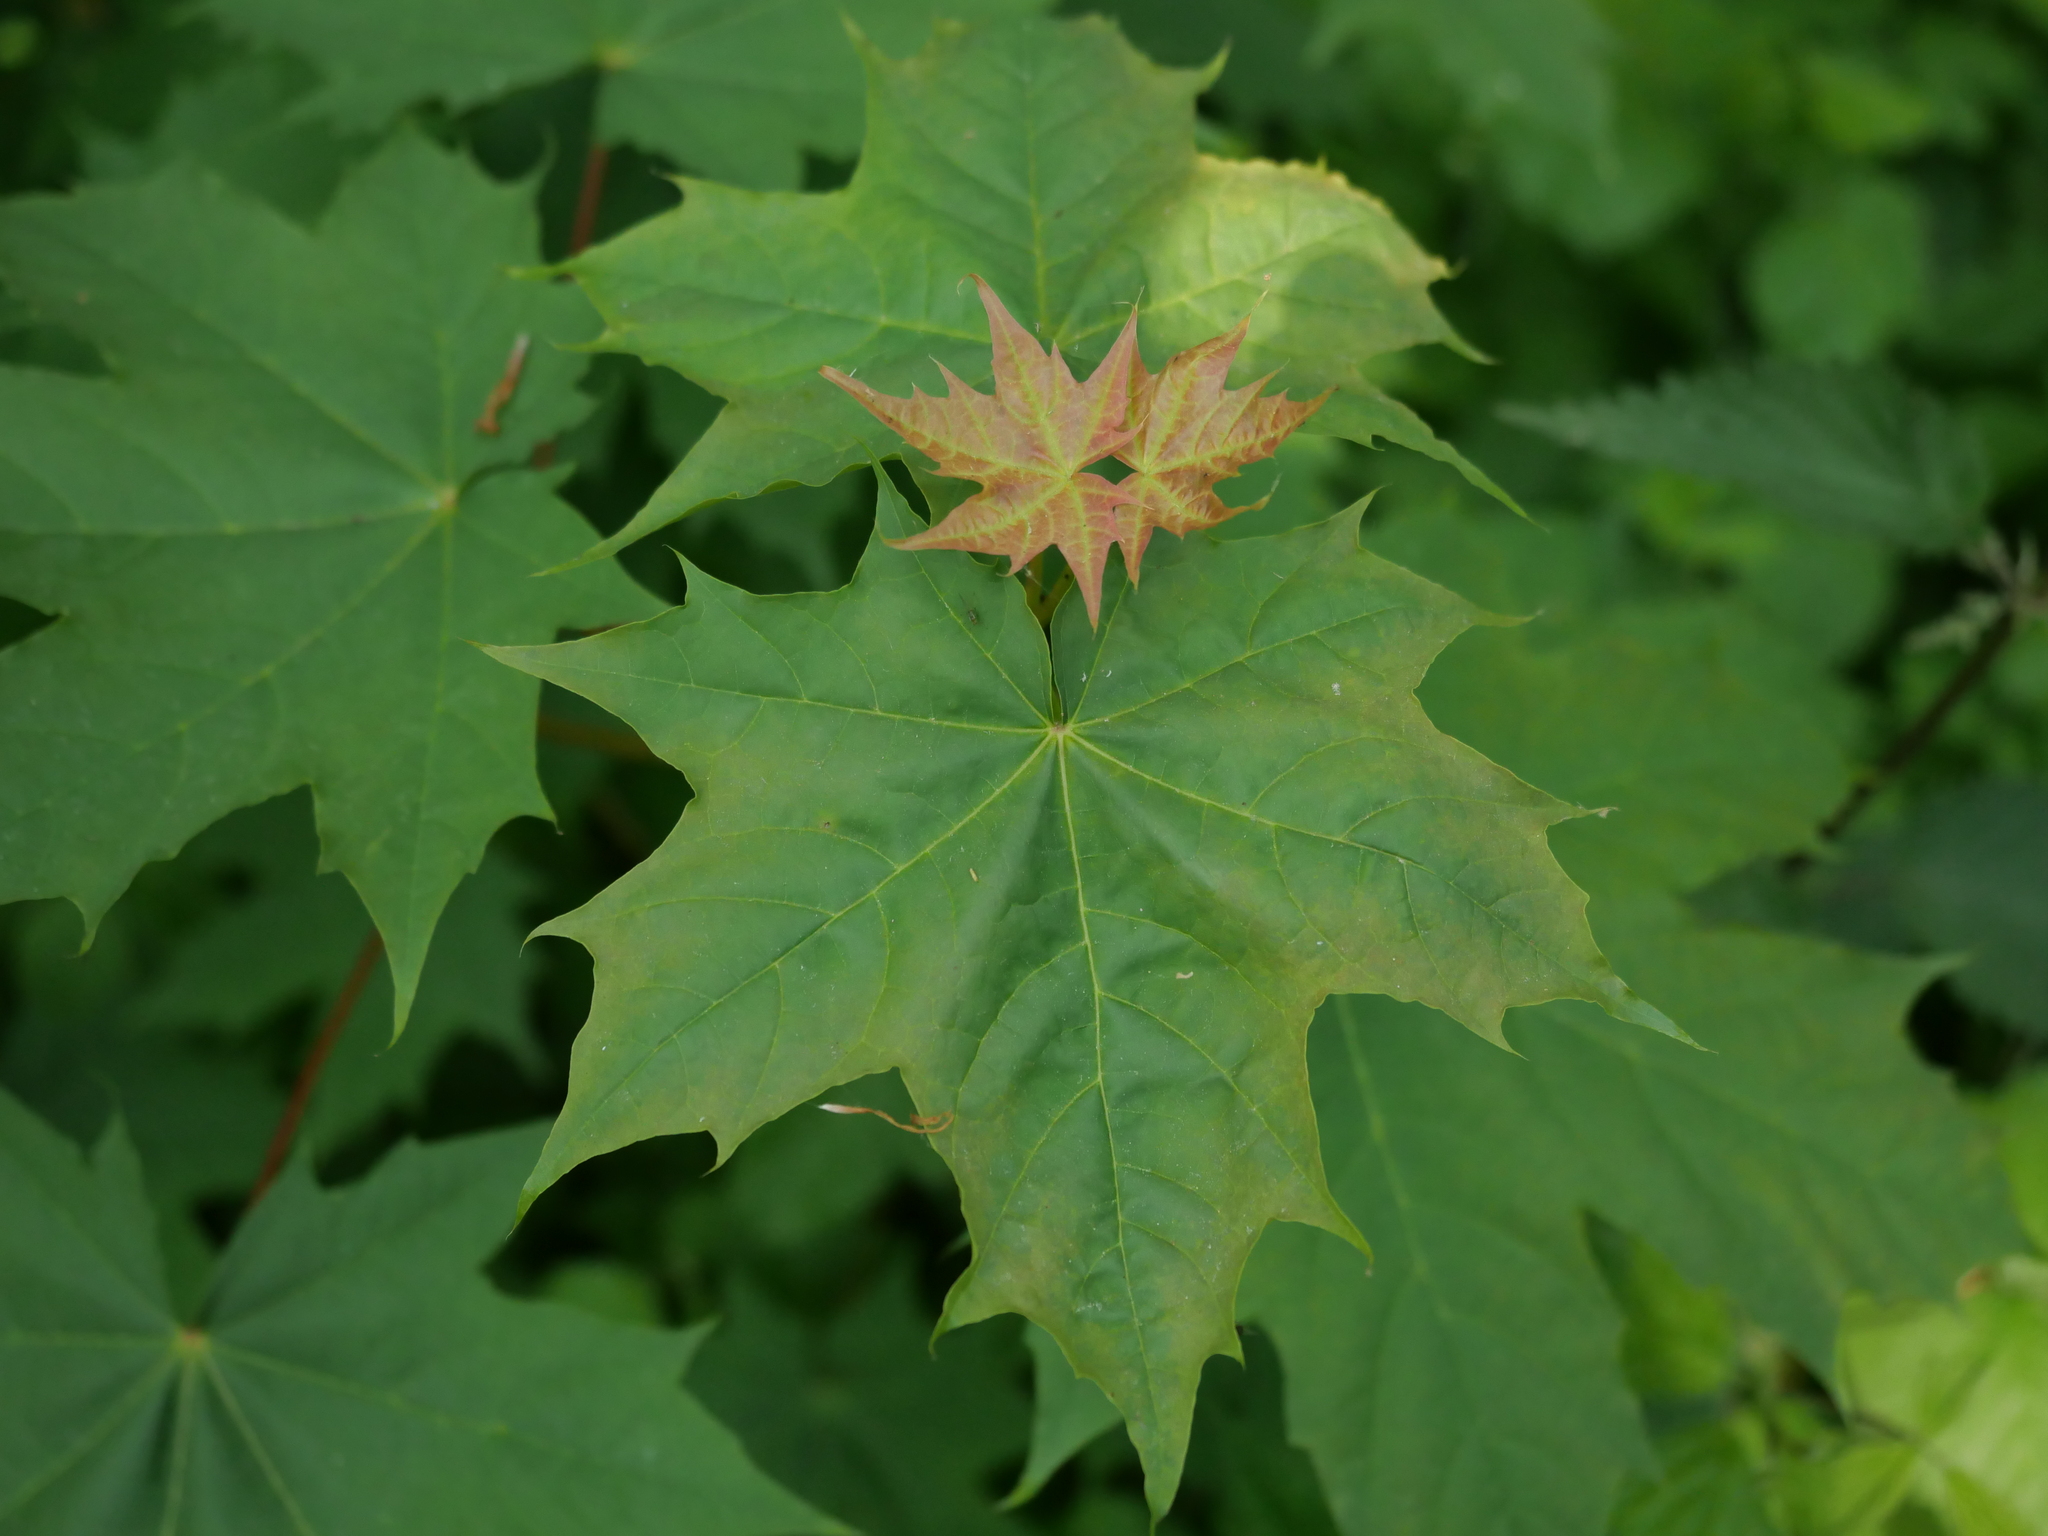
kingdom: Plantae
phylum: Tracheophyta
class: Magnoliopsida
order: Sapindales
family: Sapindaceae
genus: Acer
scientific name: Acer platanoides
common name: Norway maple
